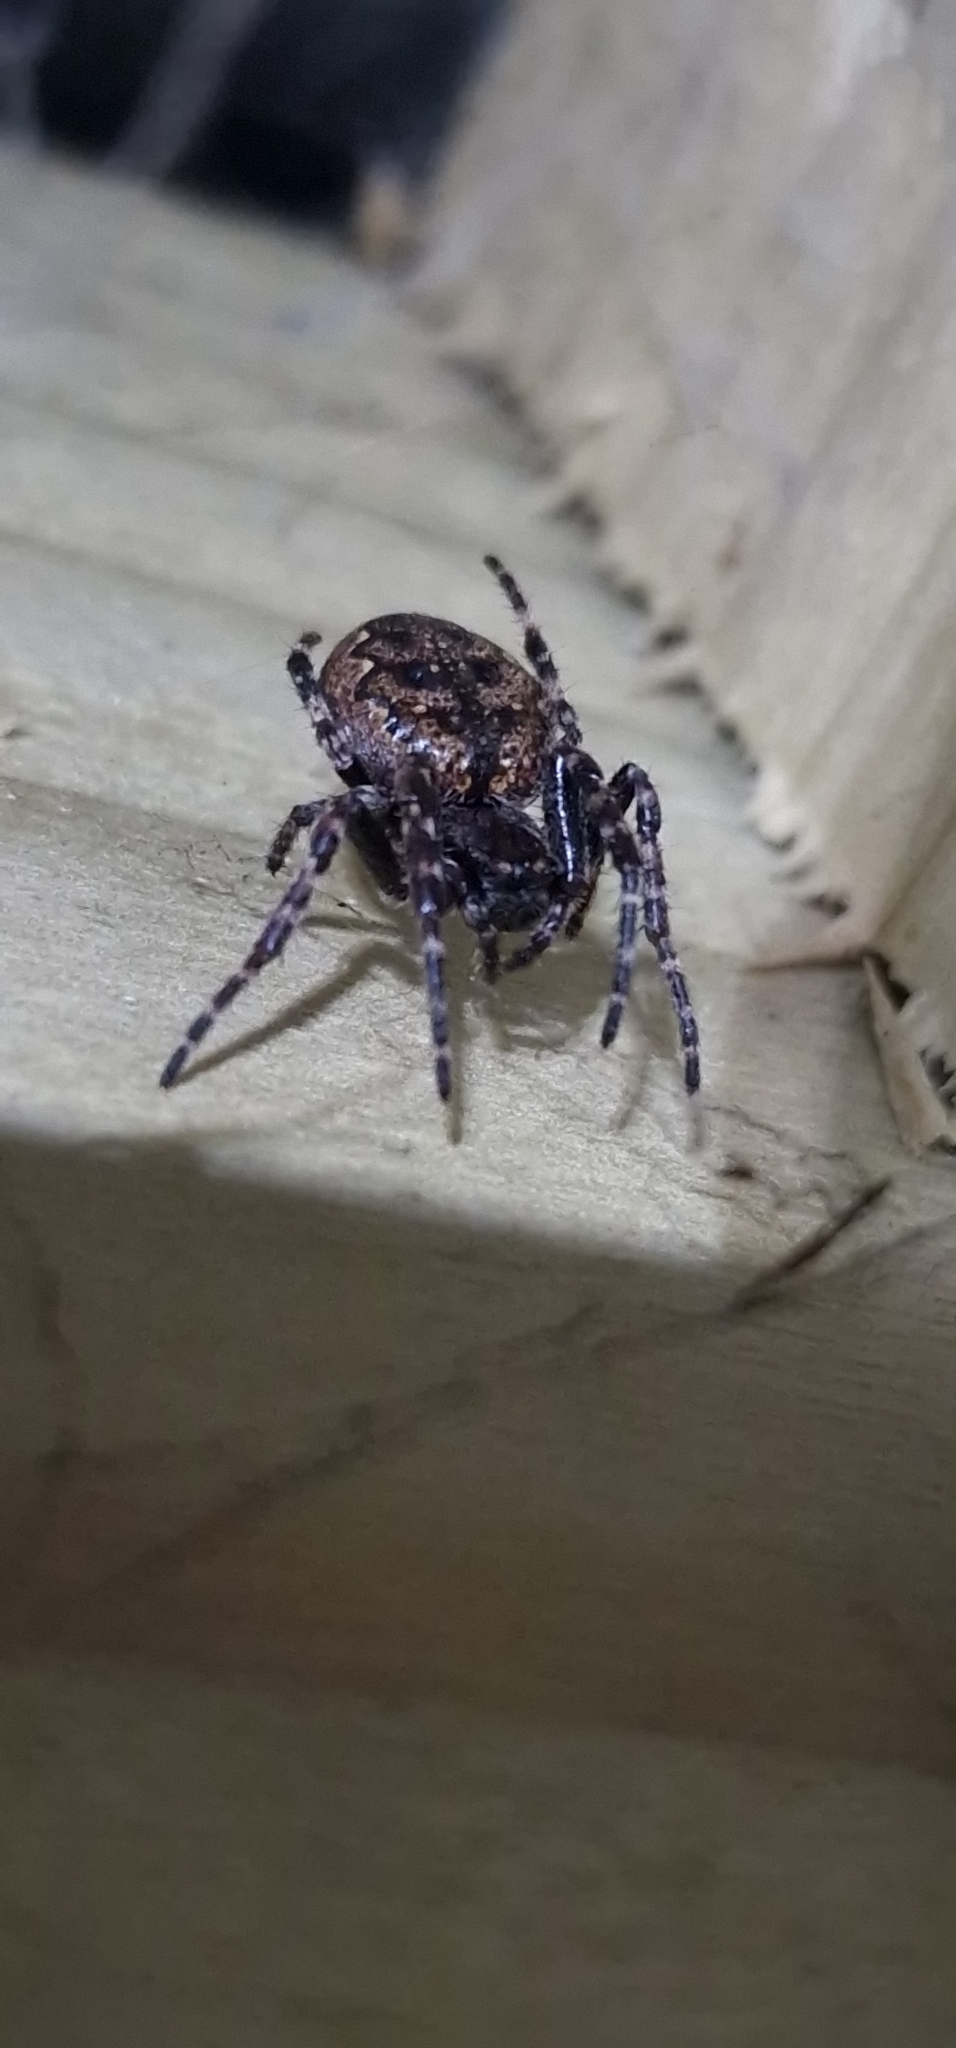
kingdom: Animalia
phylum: Arthropoda
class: Arachnida
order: Araneae
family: Araneidae
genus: Nuctenea
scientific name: Nuctenea umbratica
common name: Toad spider
